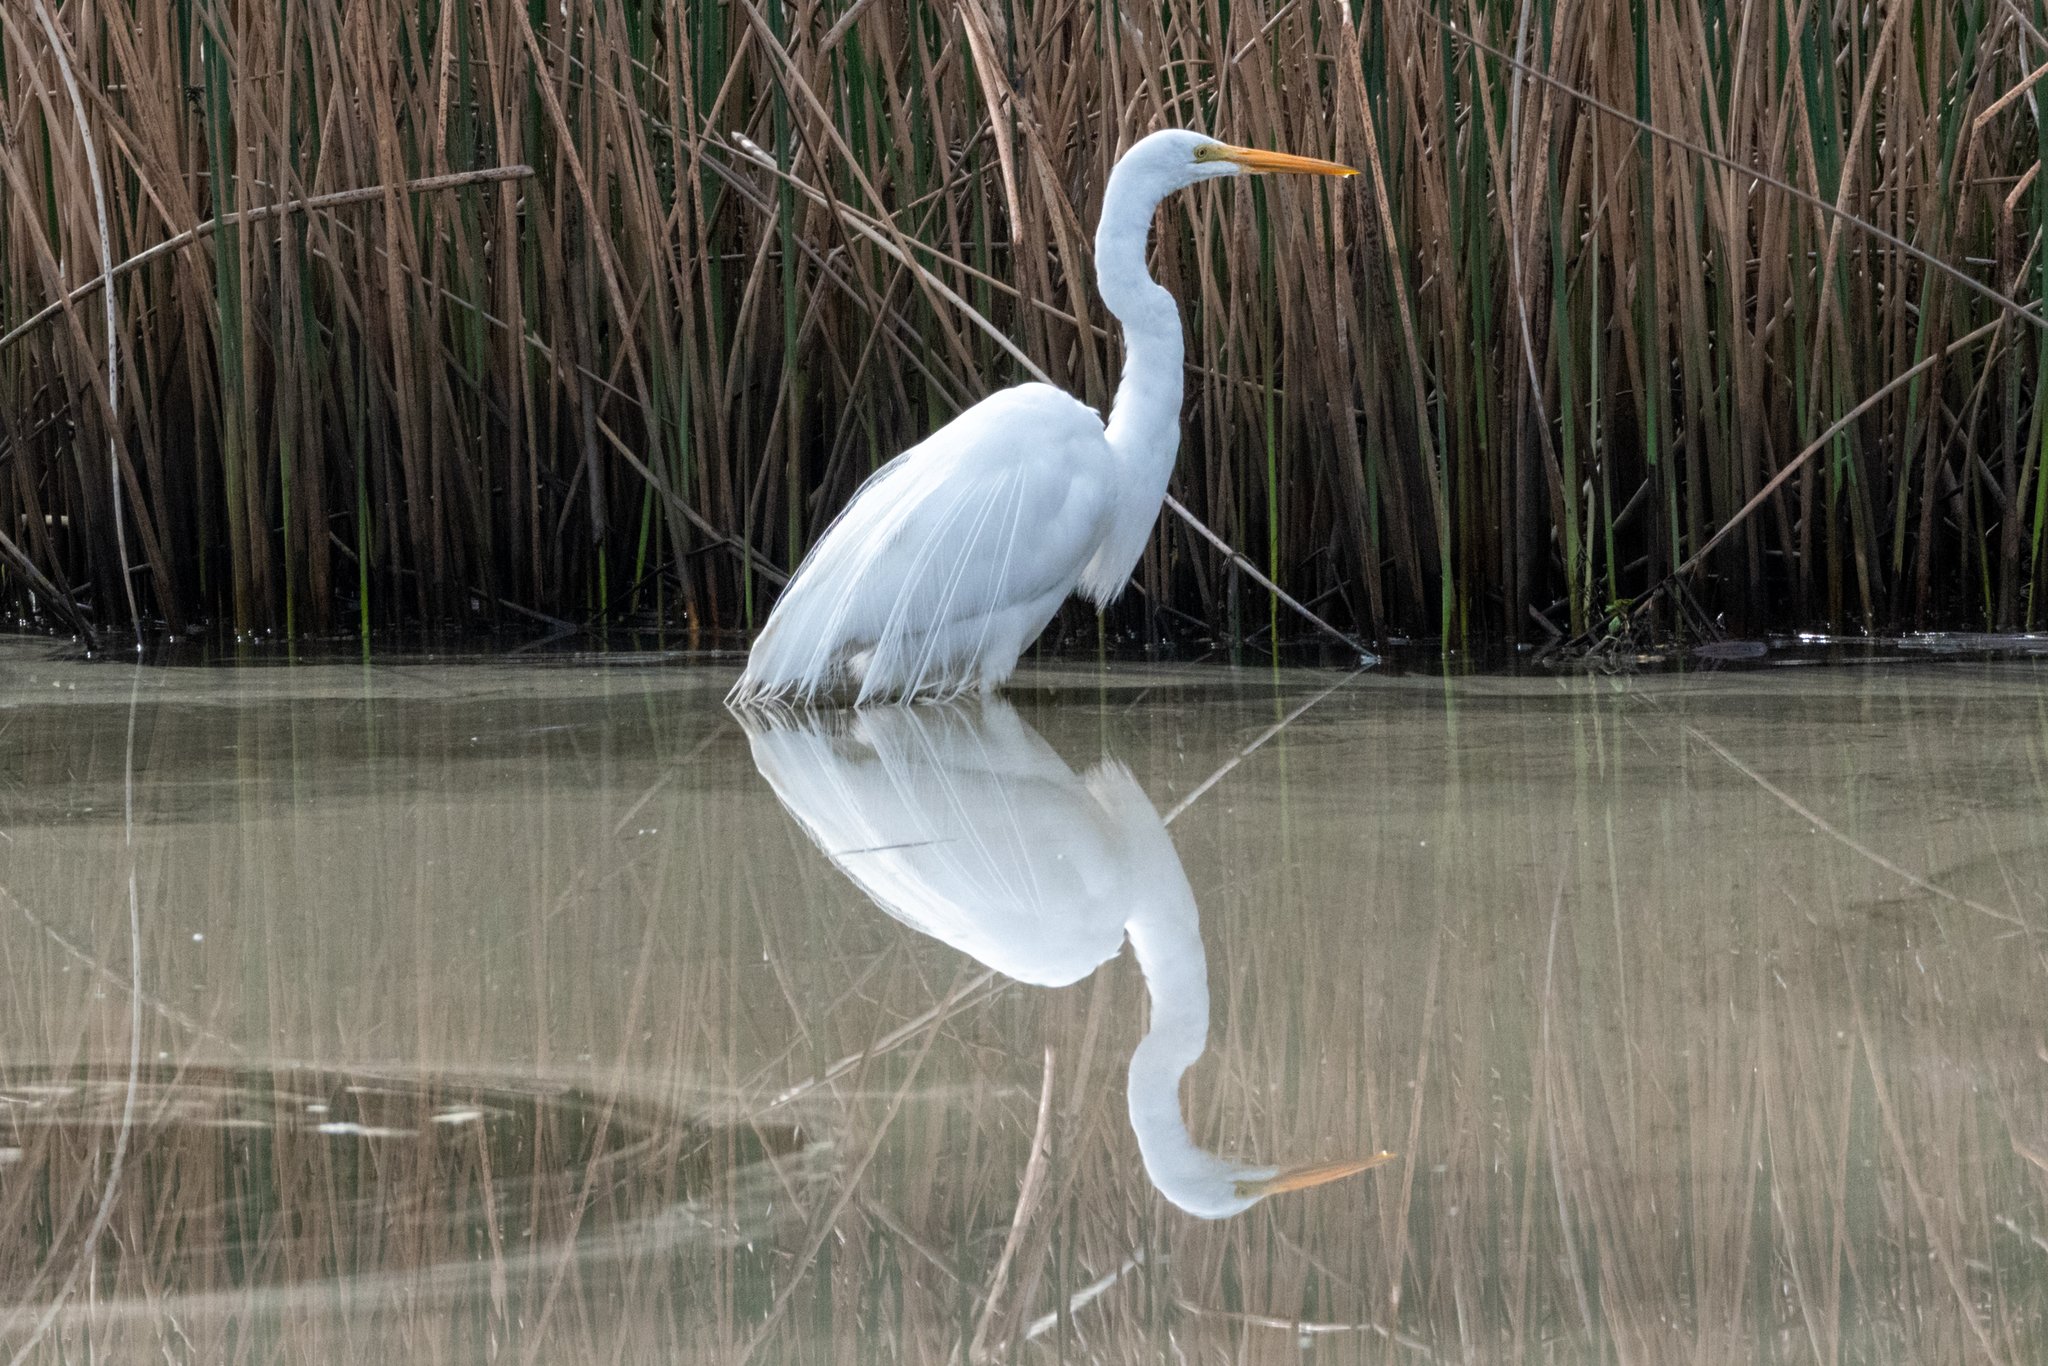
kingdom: Animalia
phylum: Chordata
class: Aves
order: Pelecaniformes
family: Ardeidae
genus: Ardea
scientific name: Ardea alba
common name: Great egret
